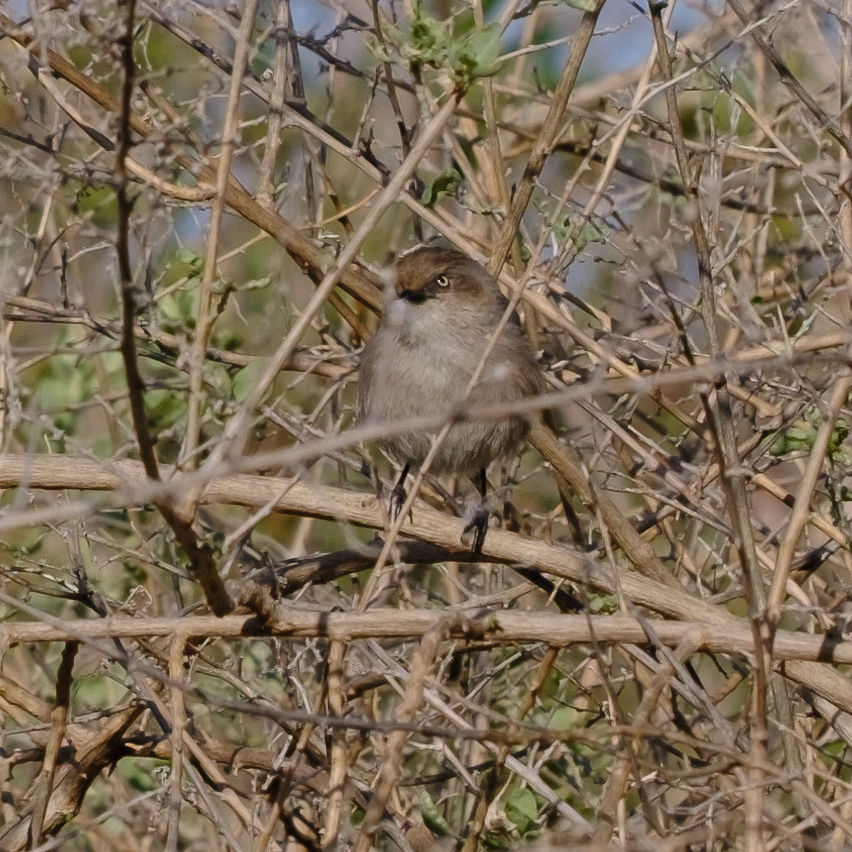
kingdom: Animalia
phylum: Chordata
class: Aves
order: Passeriformes
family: Aegithalidae
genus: Psaltriparus
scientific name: Psaltriparus minimus
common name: American bushtit
